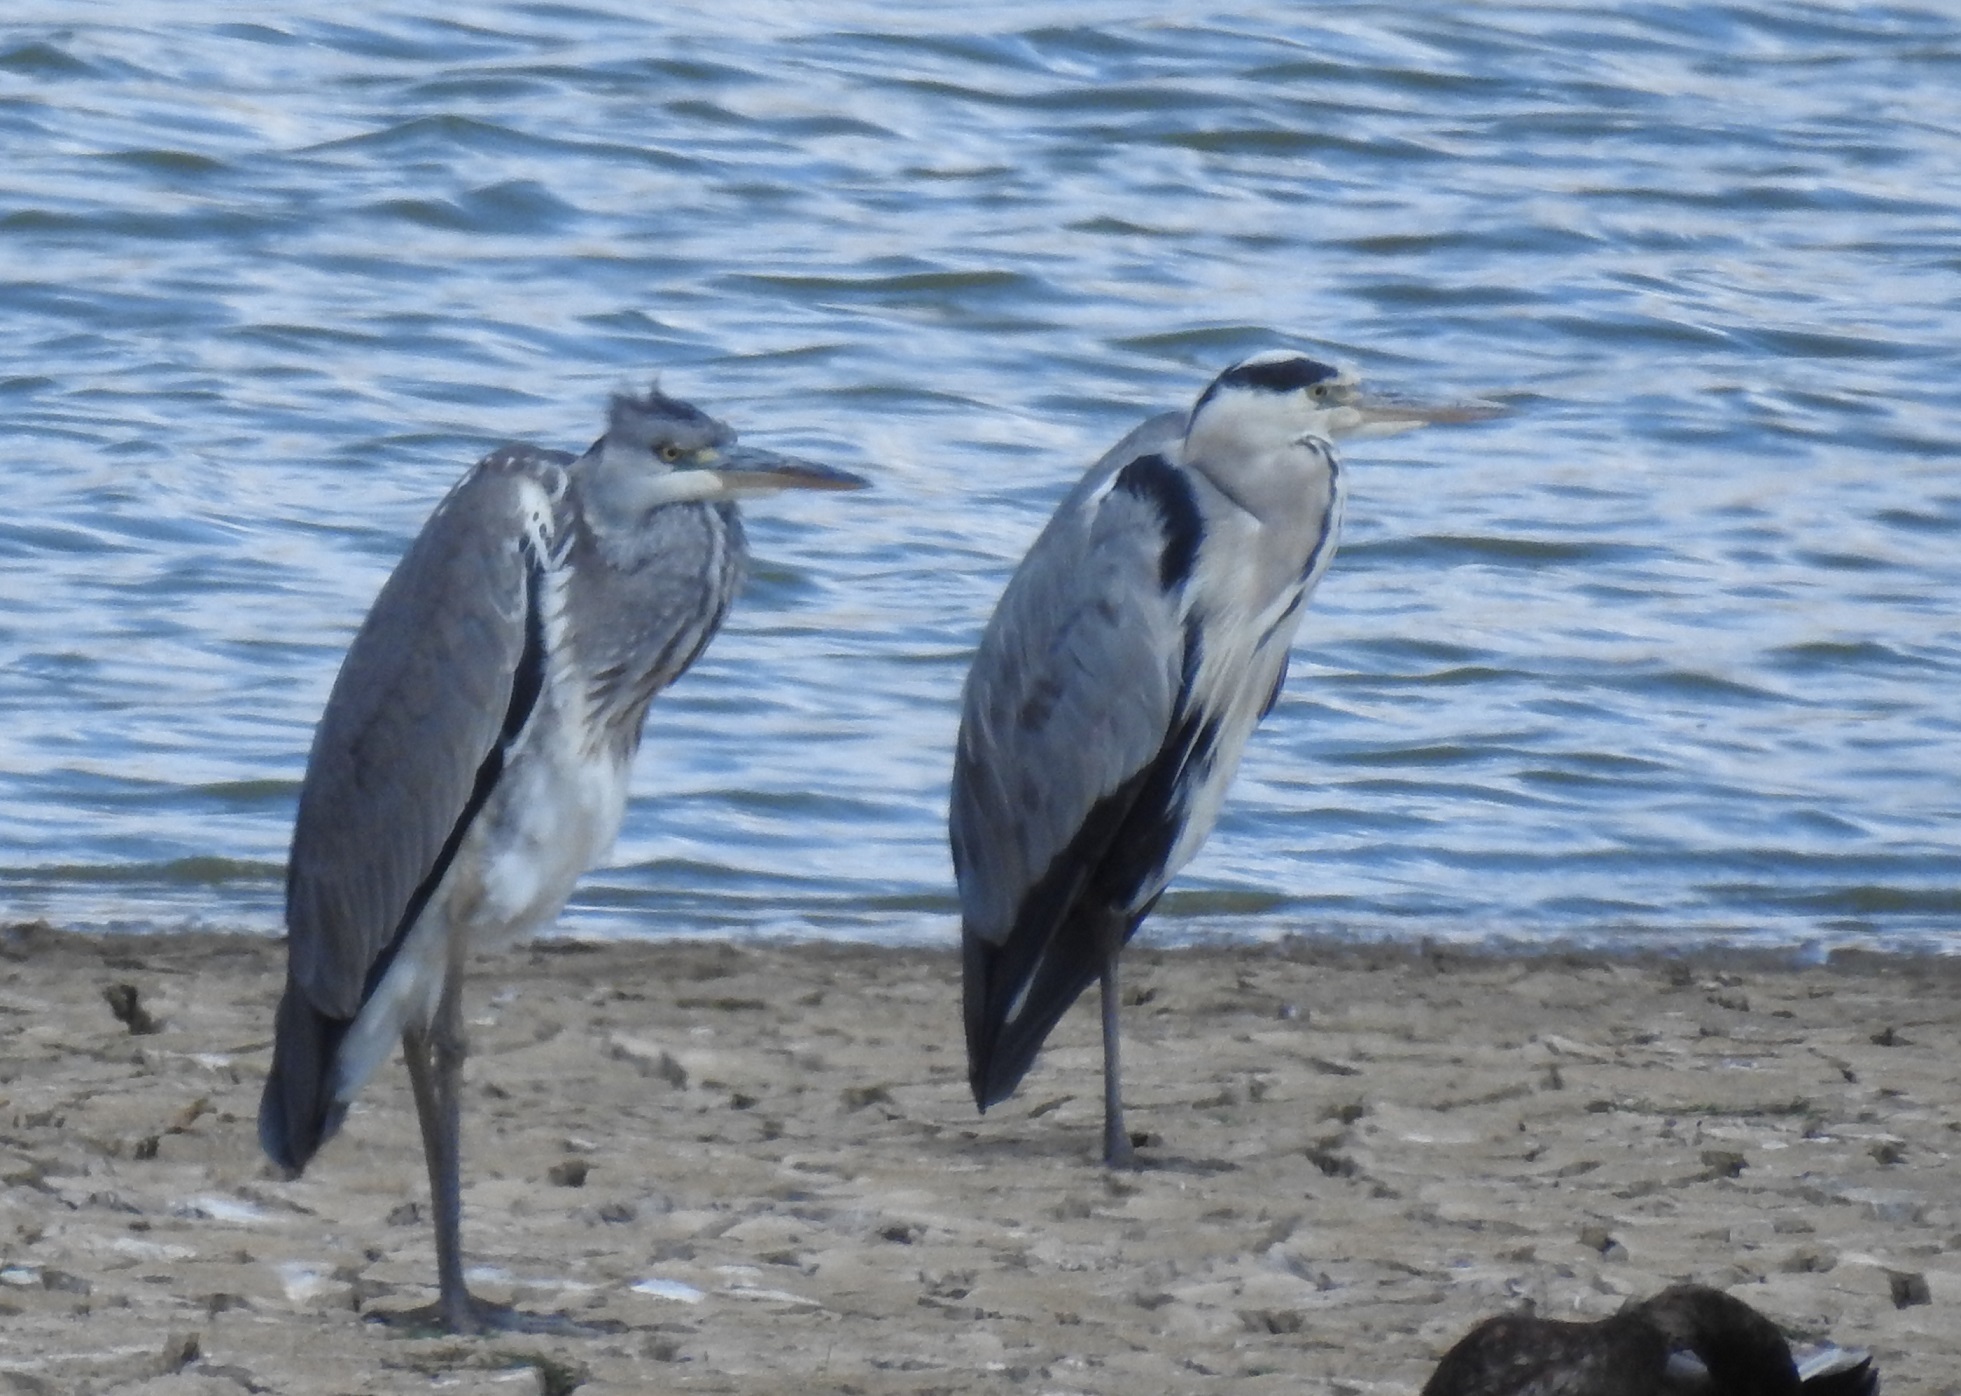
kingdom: Animalia
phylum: Chordata
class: Aves
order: Pelecaniformes
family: Ardeidae
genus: Ardea
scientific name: Ardea cinerea
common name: Grey heron
